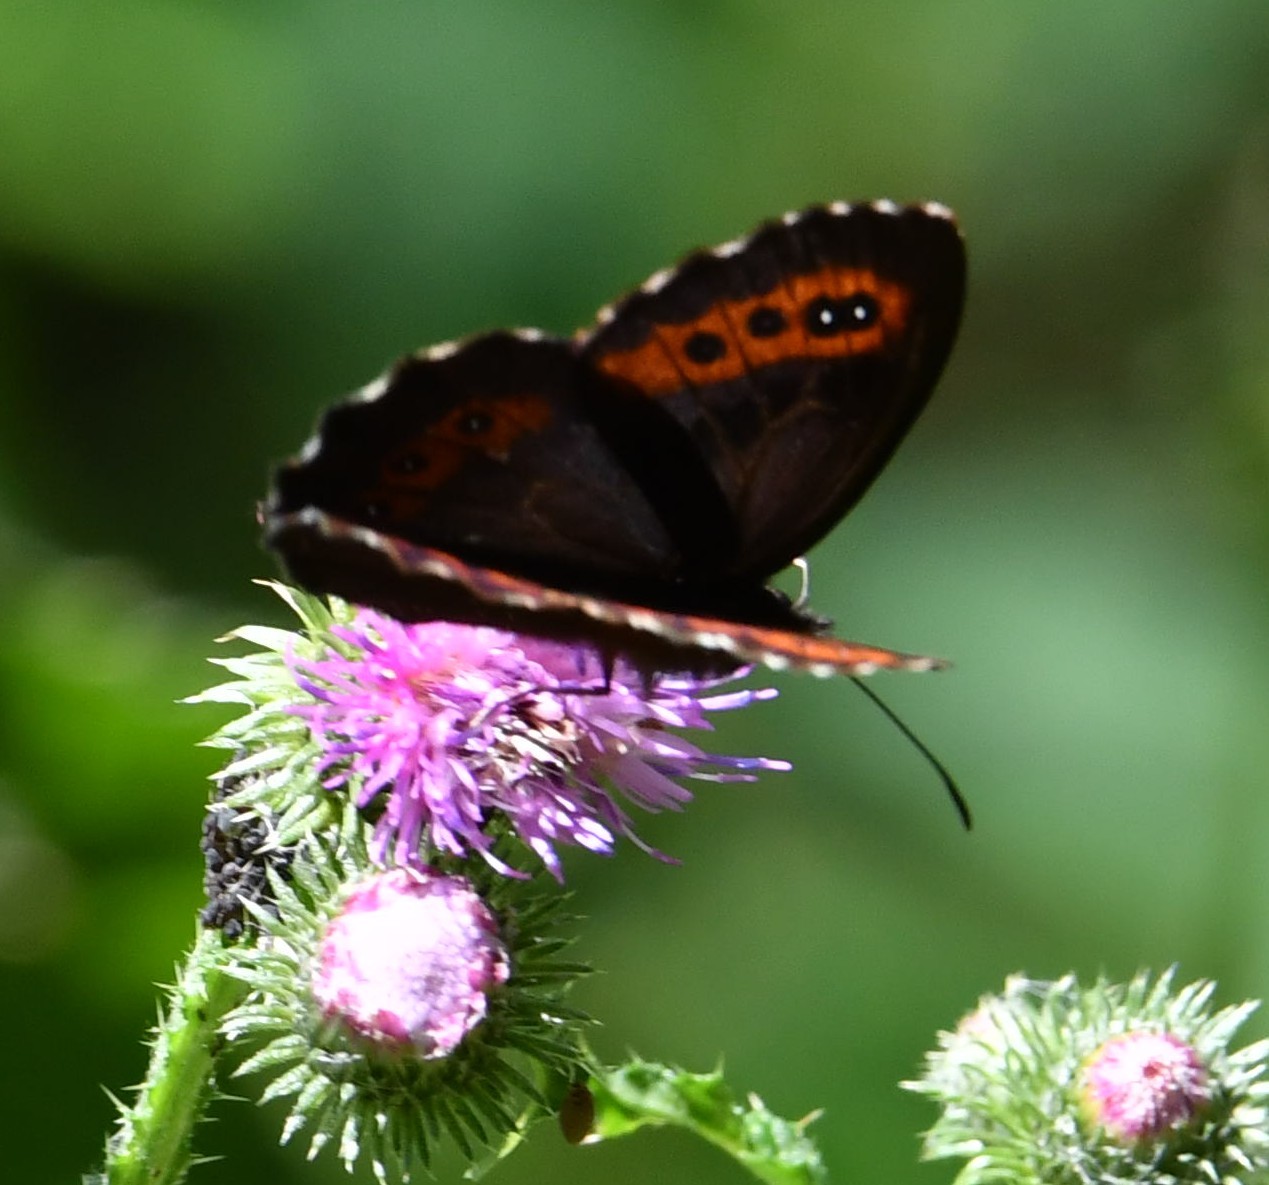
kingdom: Animalia
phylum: Arthropoda
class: Insecta
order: Lepidoptera
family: Nymphalidae
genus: Erebia
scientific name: Erebia ligea
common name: Arran brown
